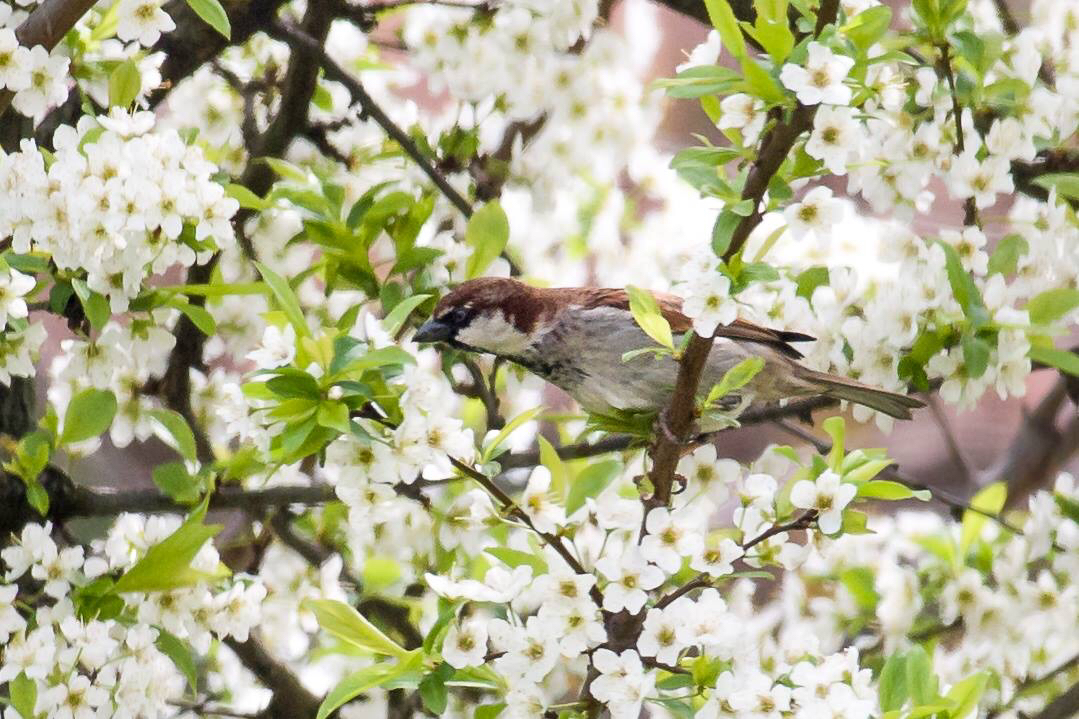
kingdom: Animalia
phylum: Chordata
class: Aves
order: Passeriformes
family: Passeridae
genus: Passer
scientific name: Passer italiae
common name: Italian sparrow
